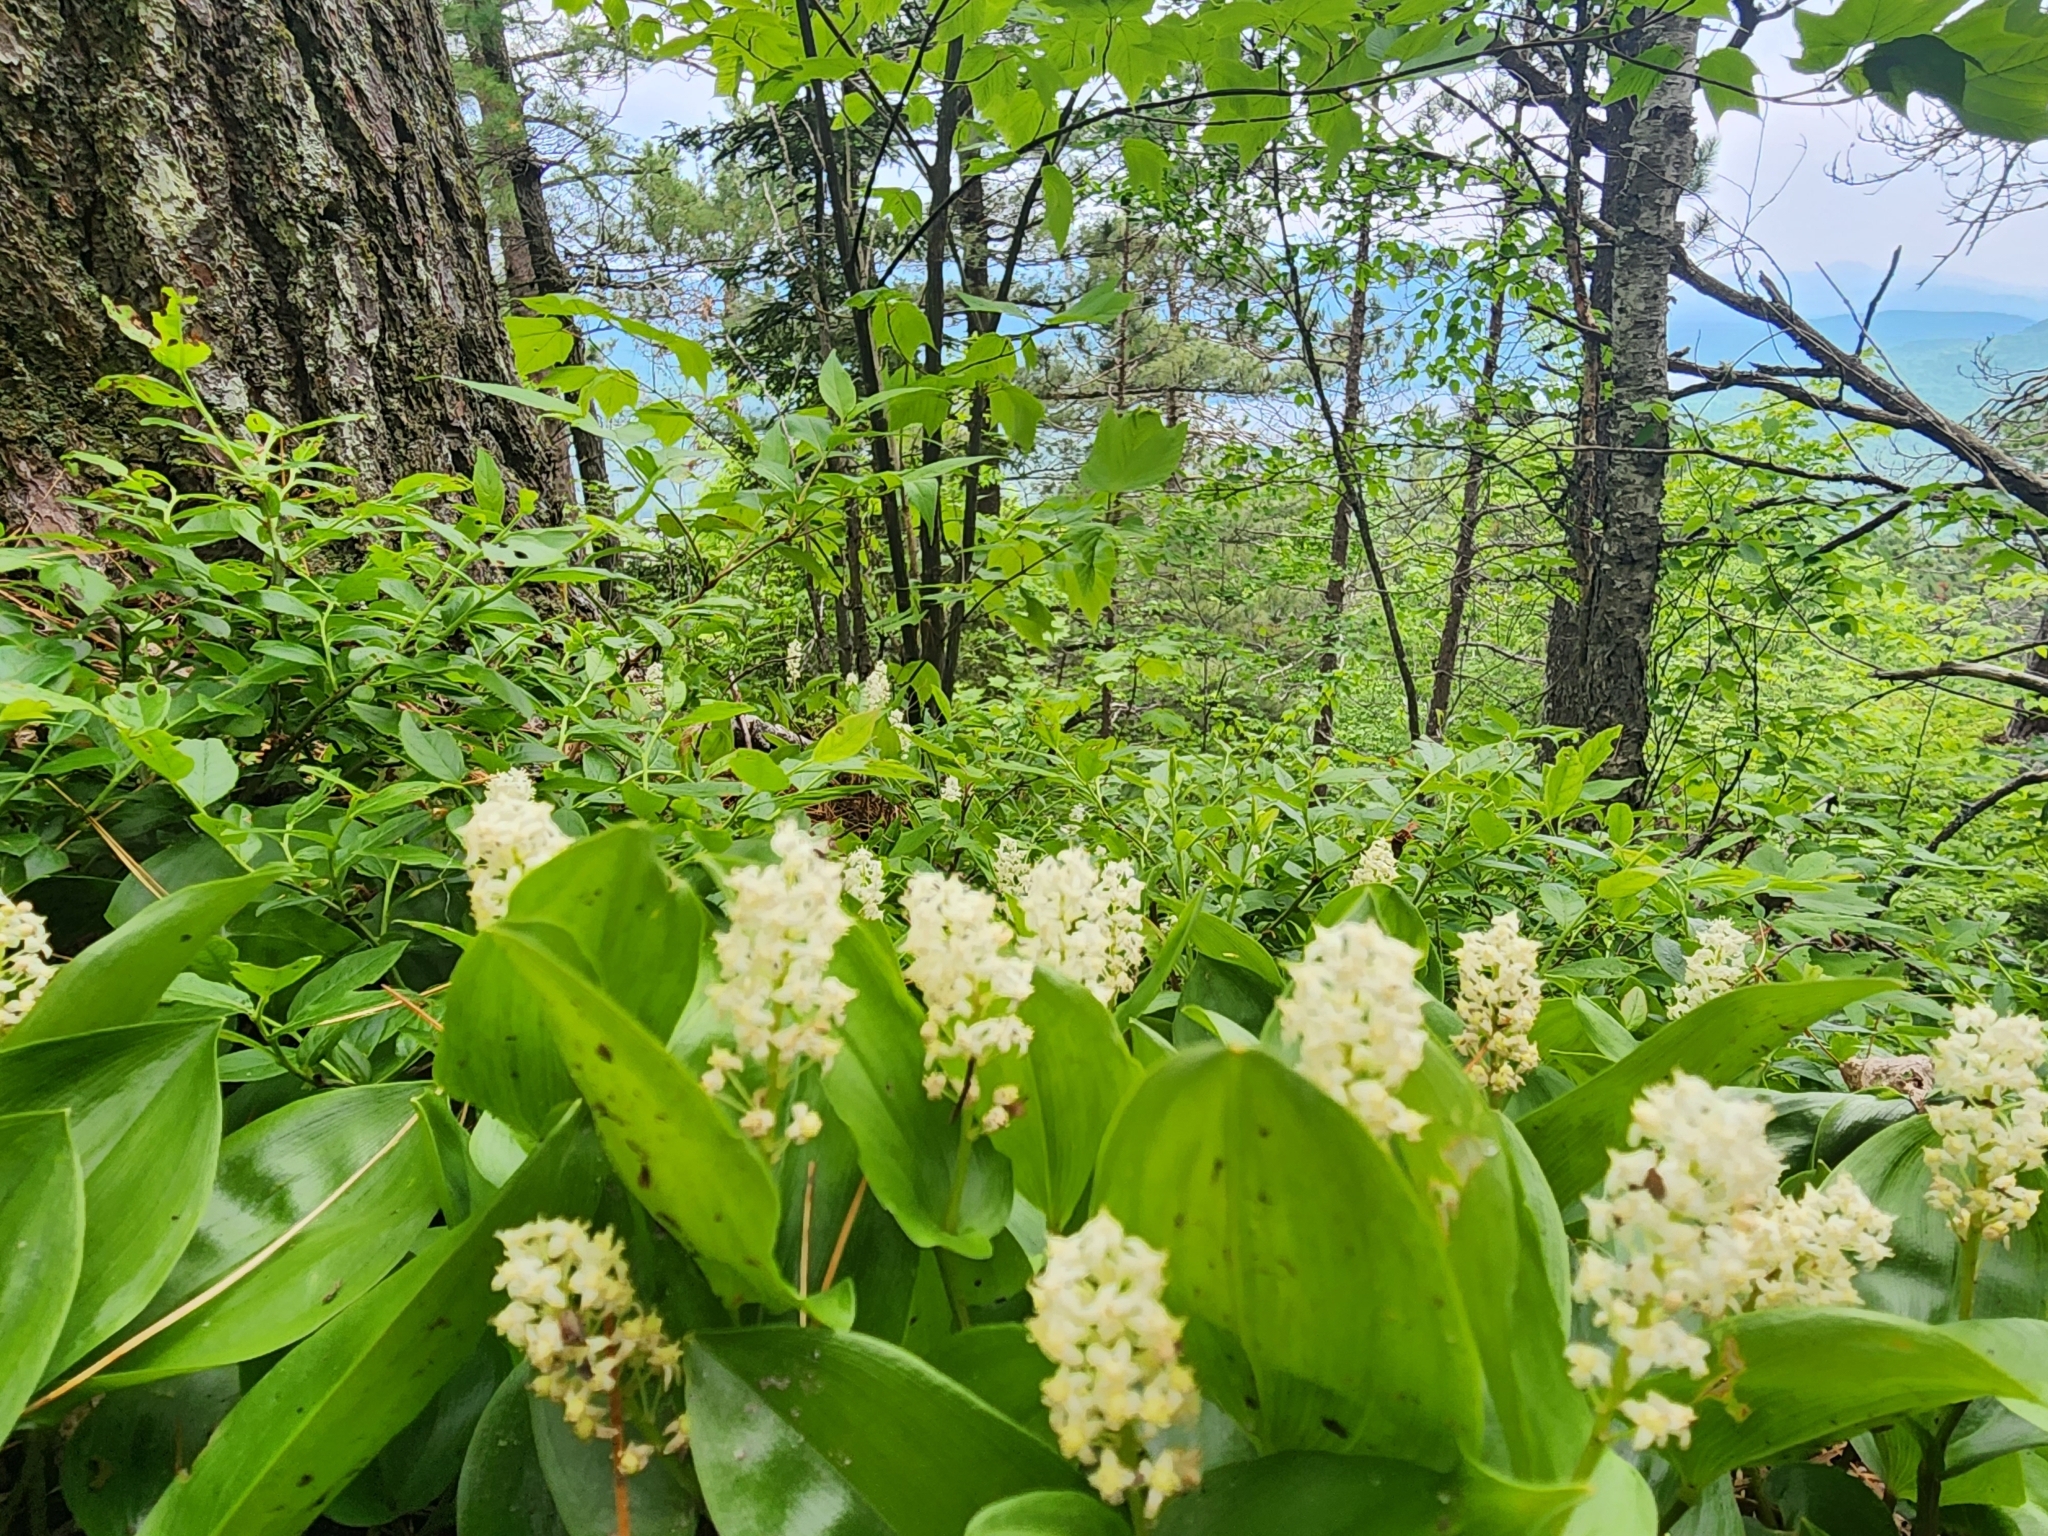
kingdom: Plantae
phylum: Tracheophyta
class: Liliopsida
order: Asparagales
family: Asparagaceae
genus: Maianthemum
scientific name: Maianthemum canadense
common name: False lily-of-the-valley
